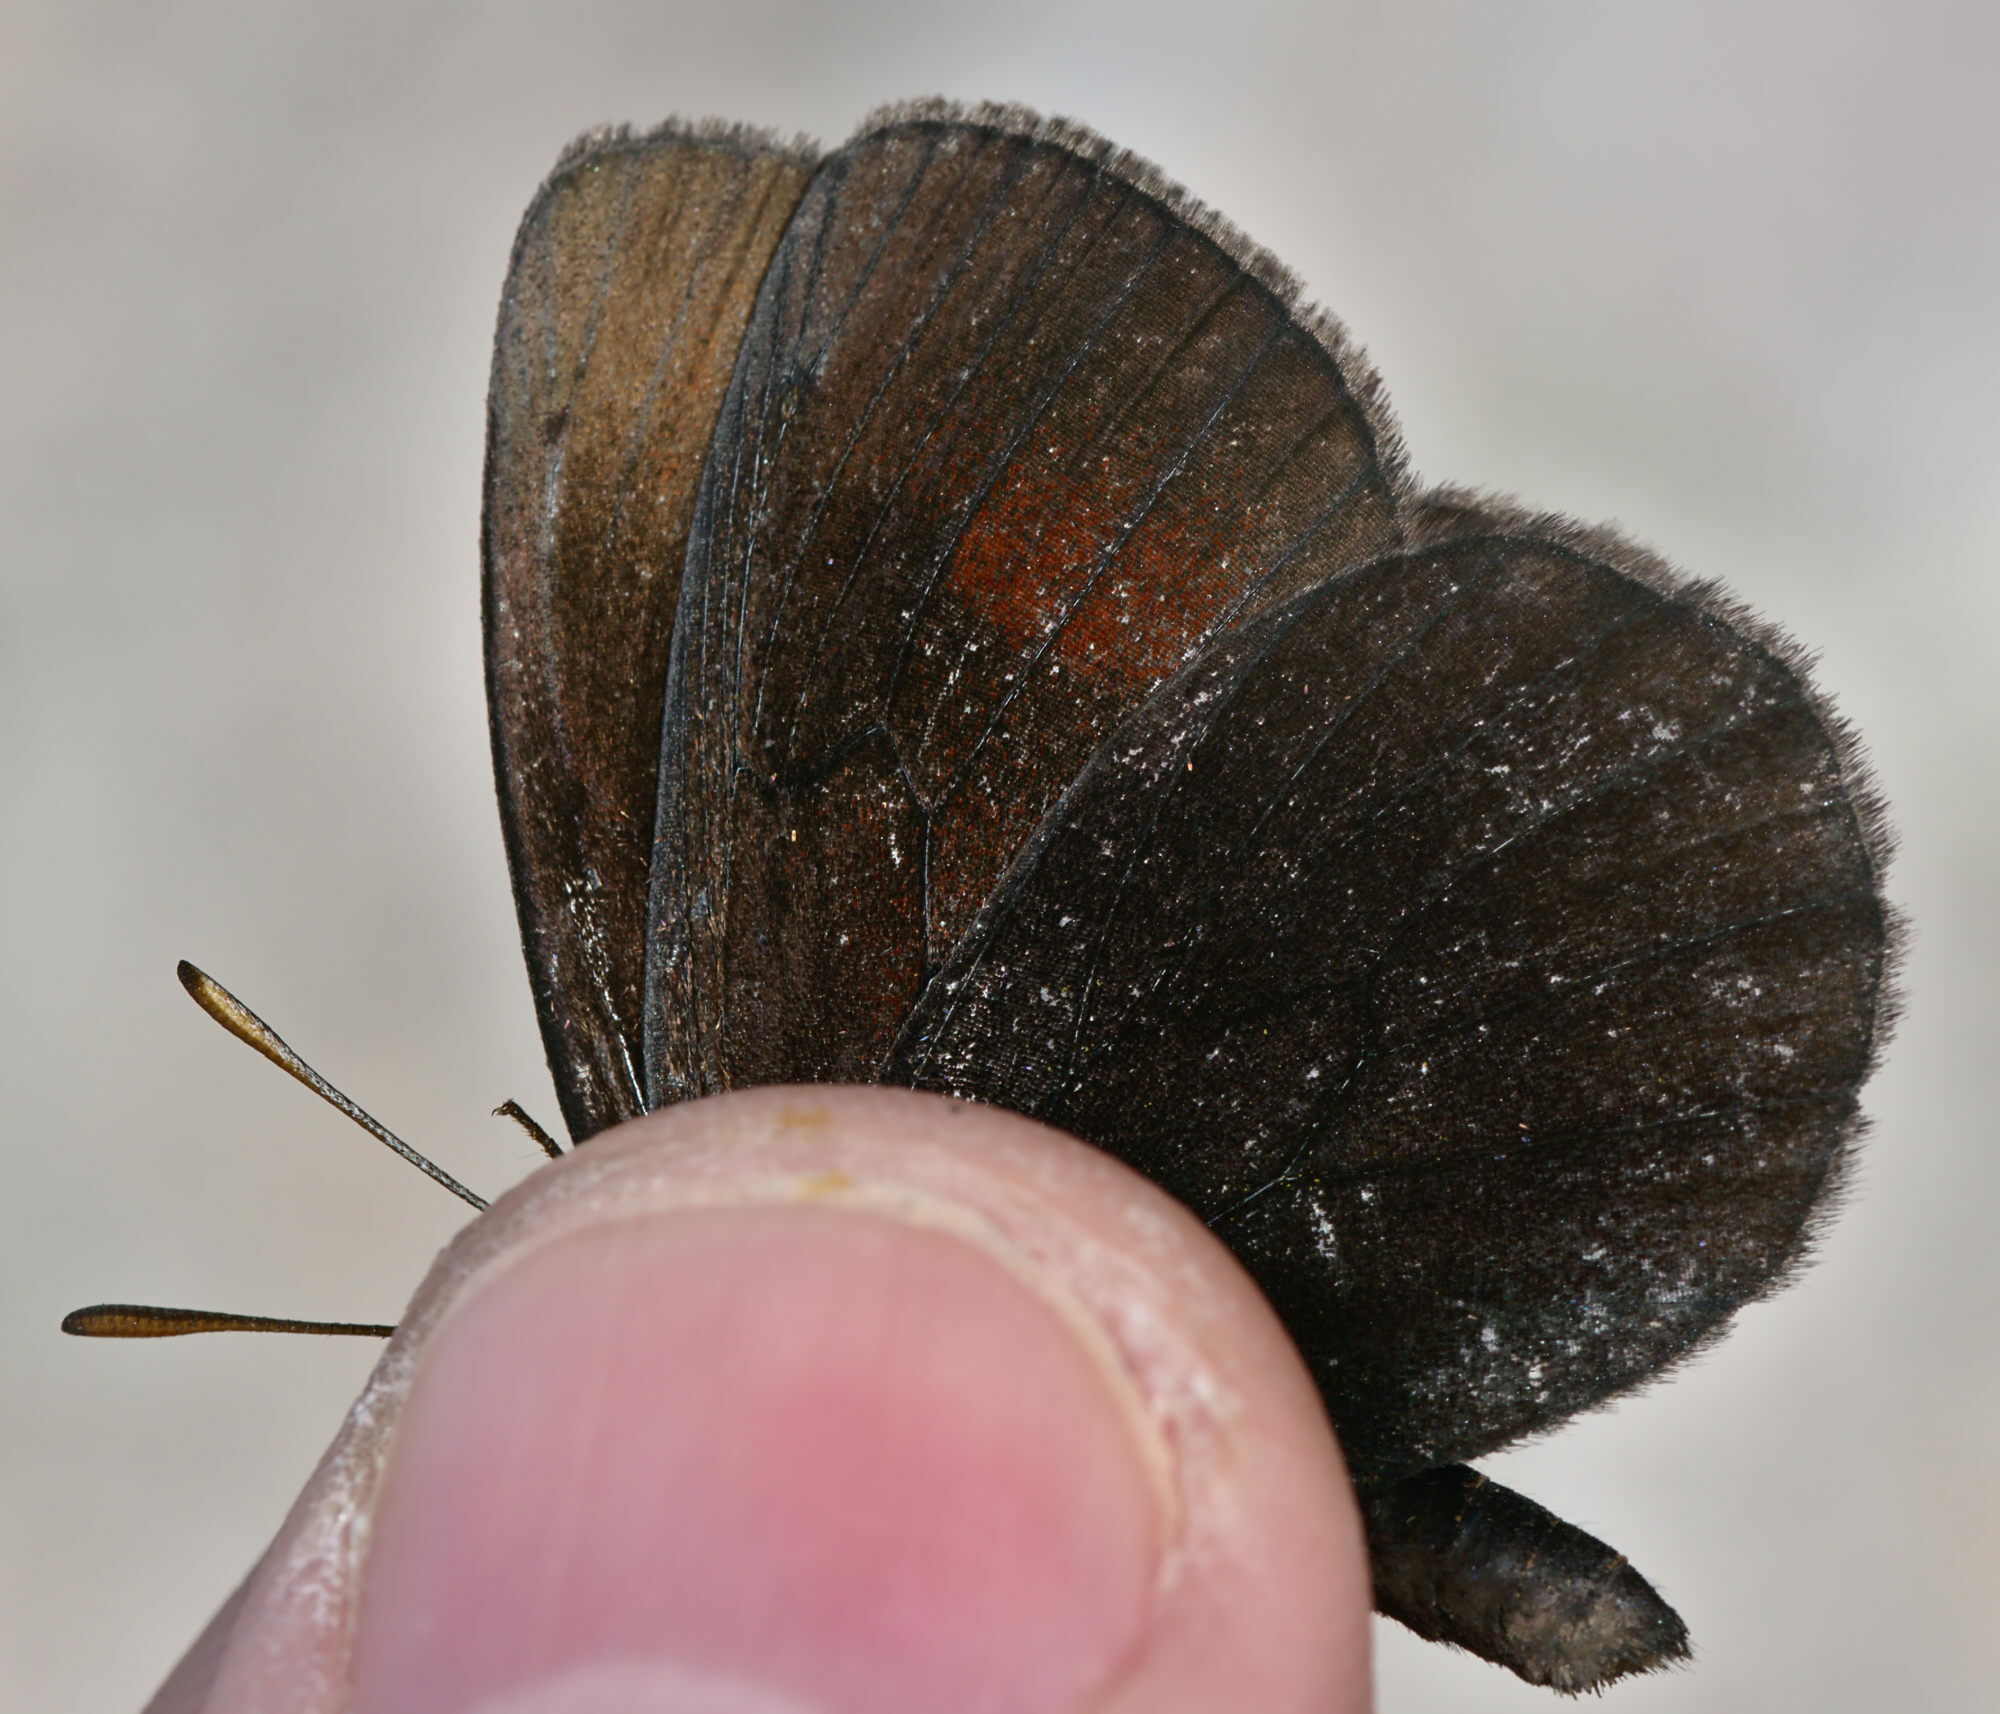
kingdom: Animalia
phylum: Arthropoda
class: Insecta
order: Lepidoptera
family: Nymphalidae
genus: Erebia
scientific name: Erebia pluto
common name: Sooty ringlet
